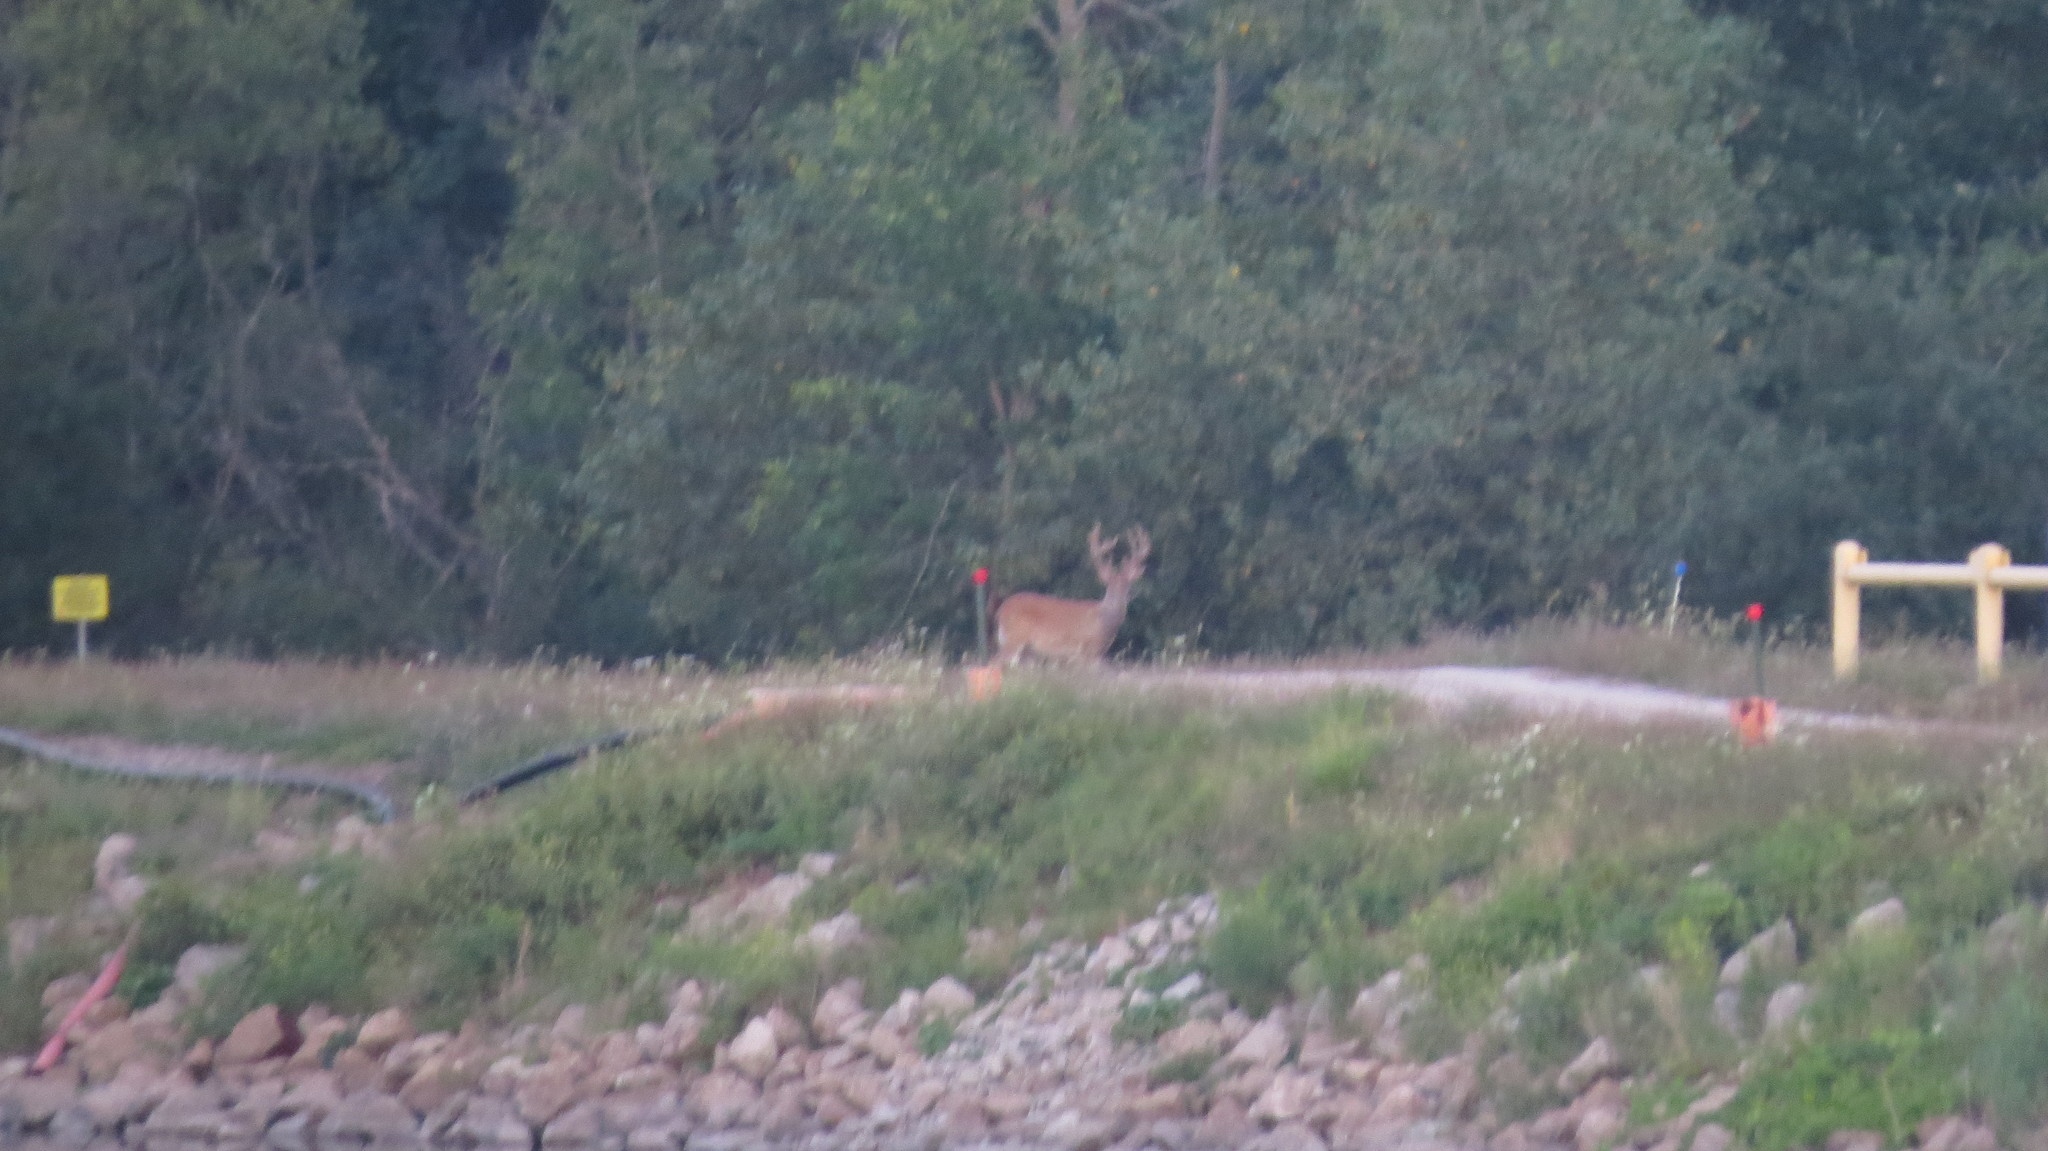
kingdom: Animalia
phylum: Chordata
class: Mammalia
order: Artiodactyla
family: Cervidae
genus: Odocoileus
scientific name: Odocoileus virginianus
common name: White-tailed deer
